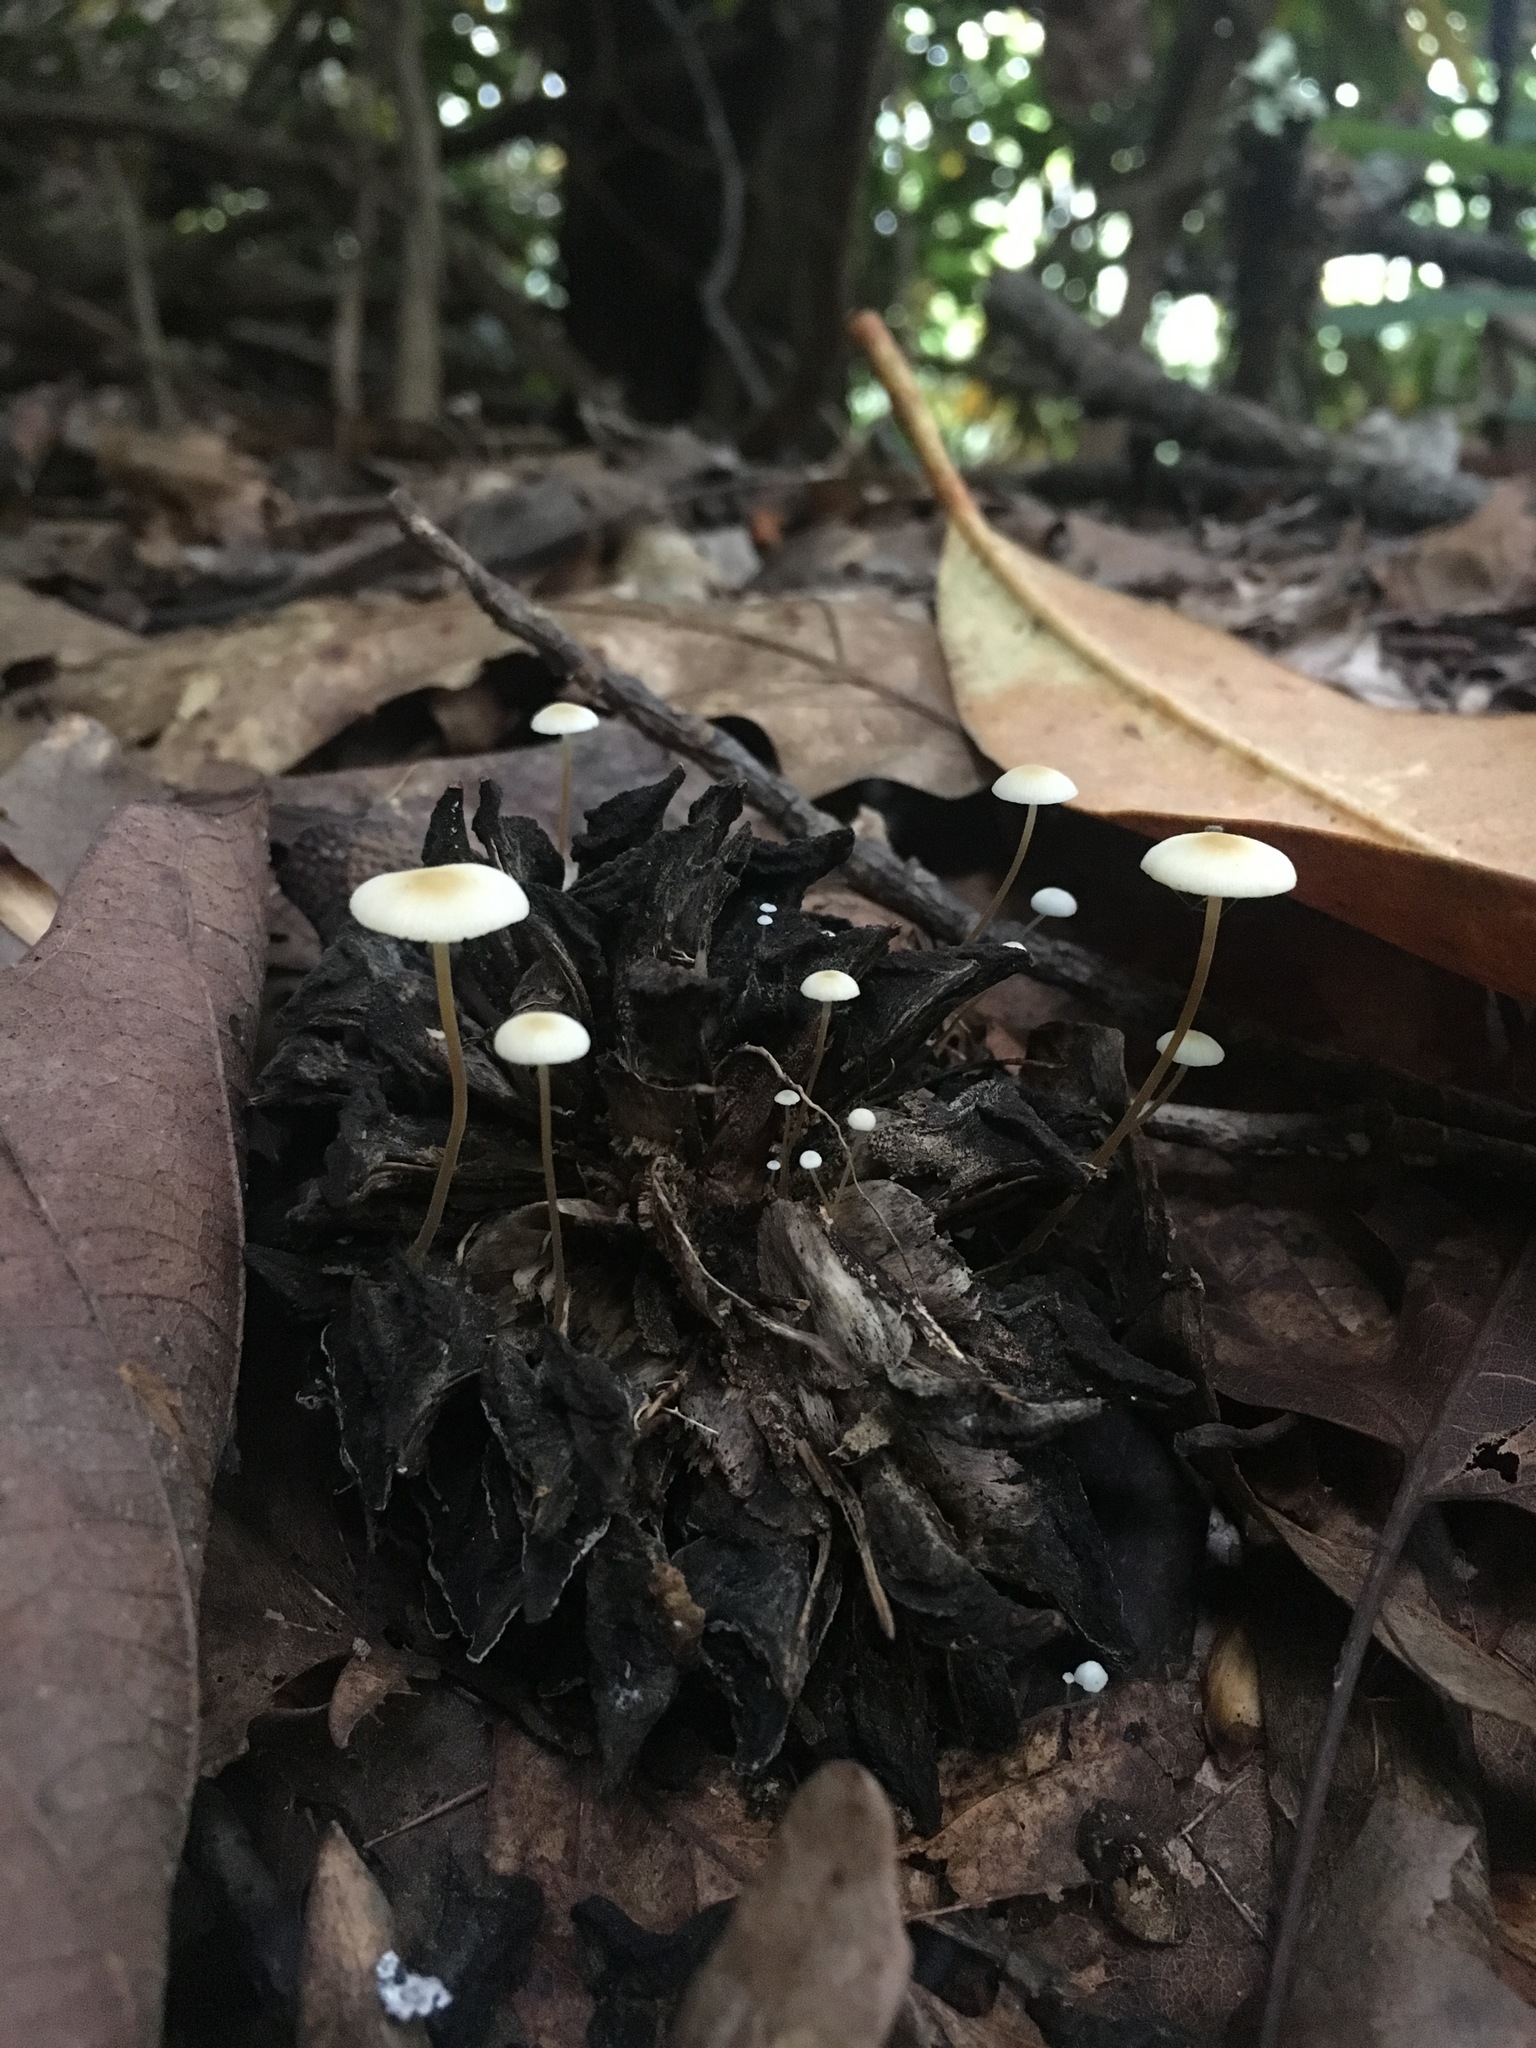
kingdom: Fungi
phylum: Basidiomycota
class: Agaricomycetes
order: Agaricales
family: Physalacriaceae
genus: Strobilurus
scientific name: Strobilurus conigenoides
